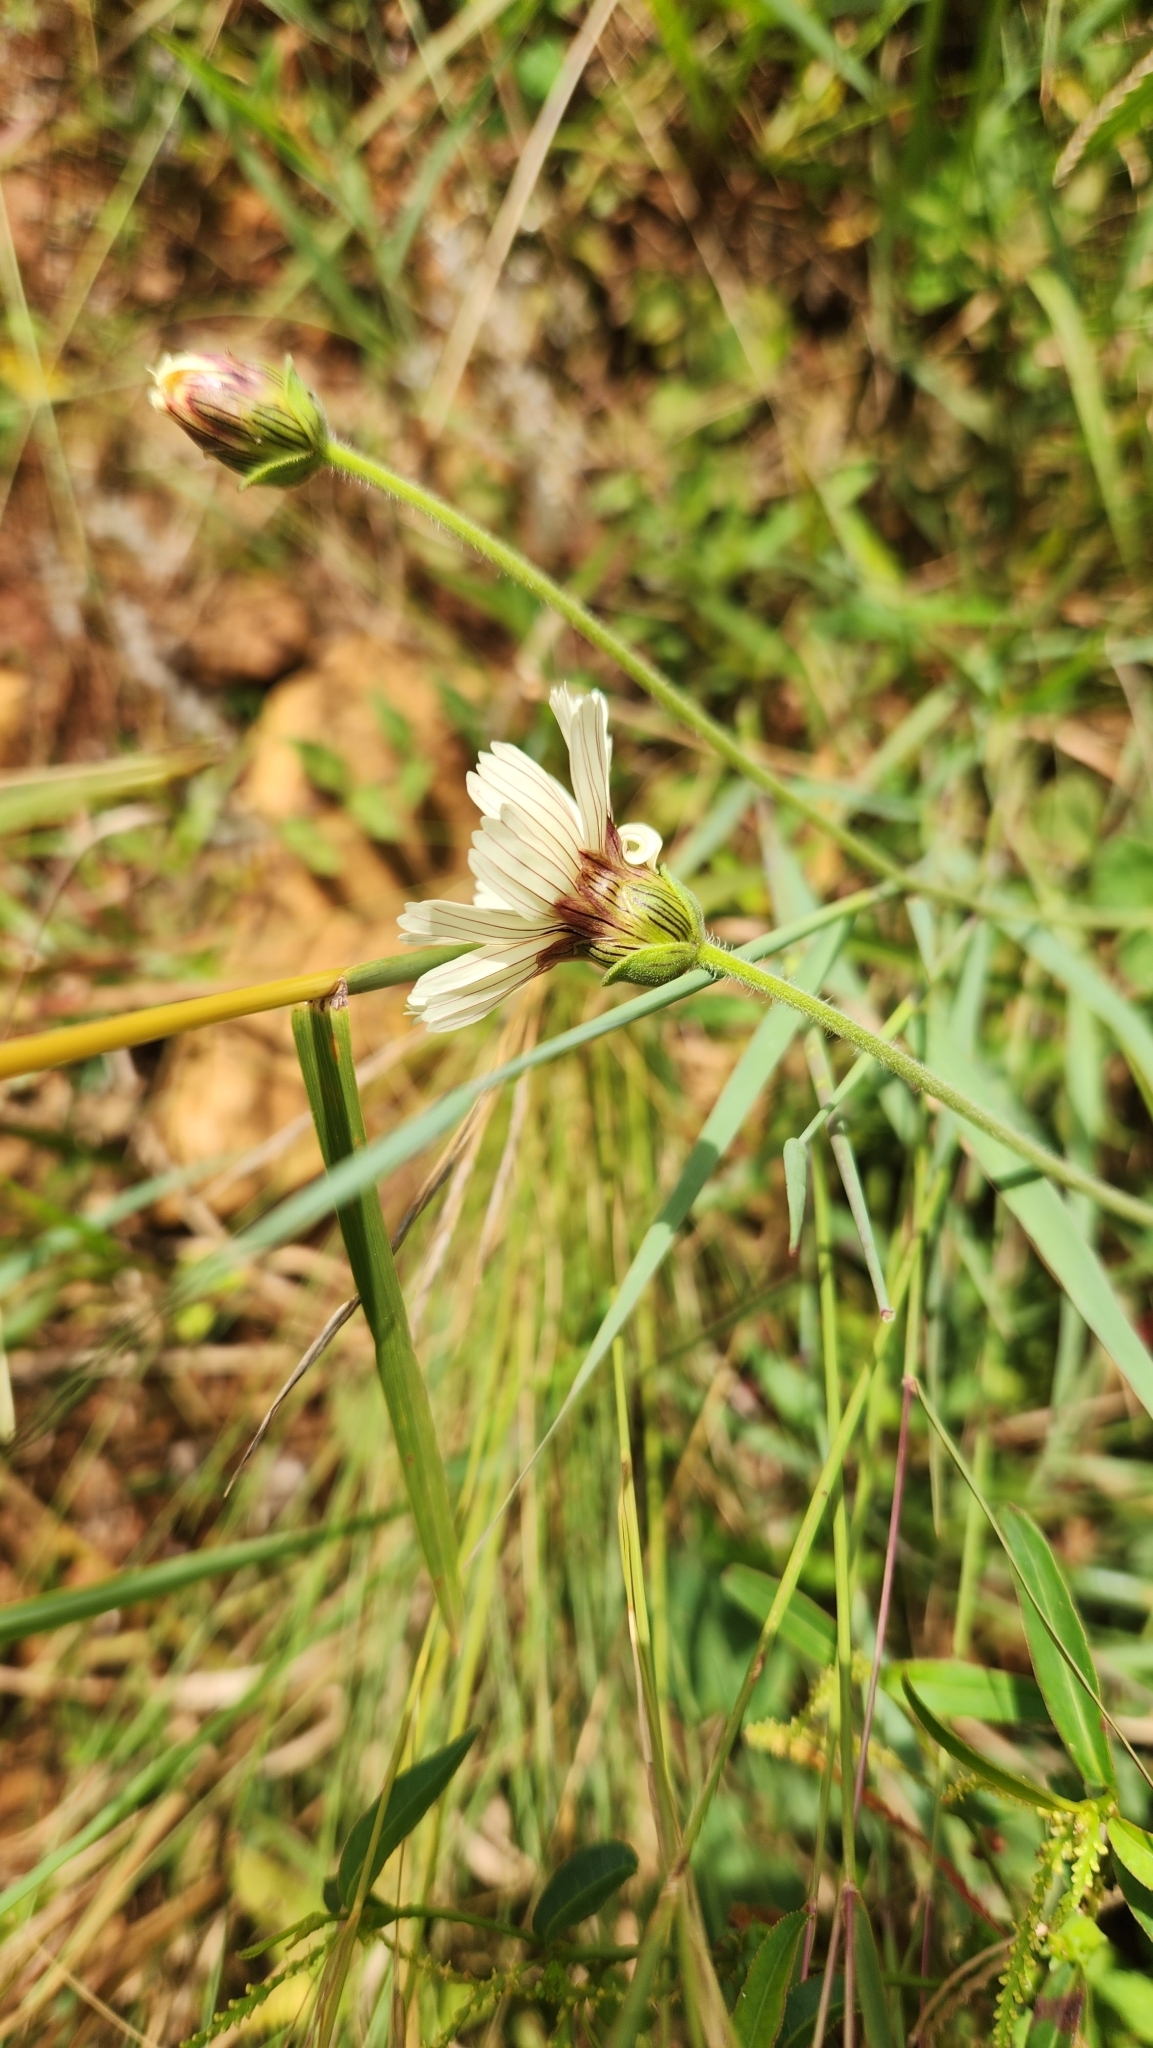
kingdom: Plantae
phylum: Tracheophyta
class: Magnoliopsida
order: Asterales
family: Asteraceae
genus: Calea
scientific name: Calea paraguayensis
